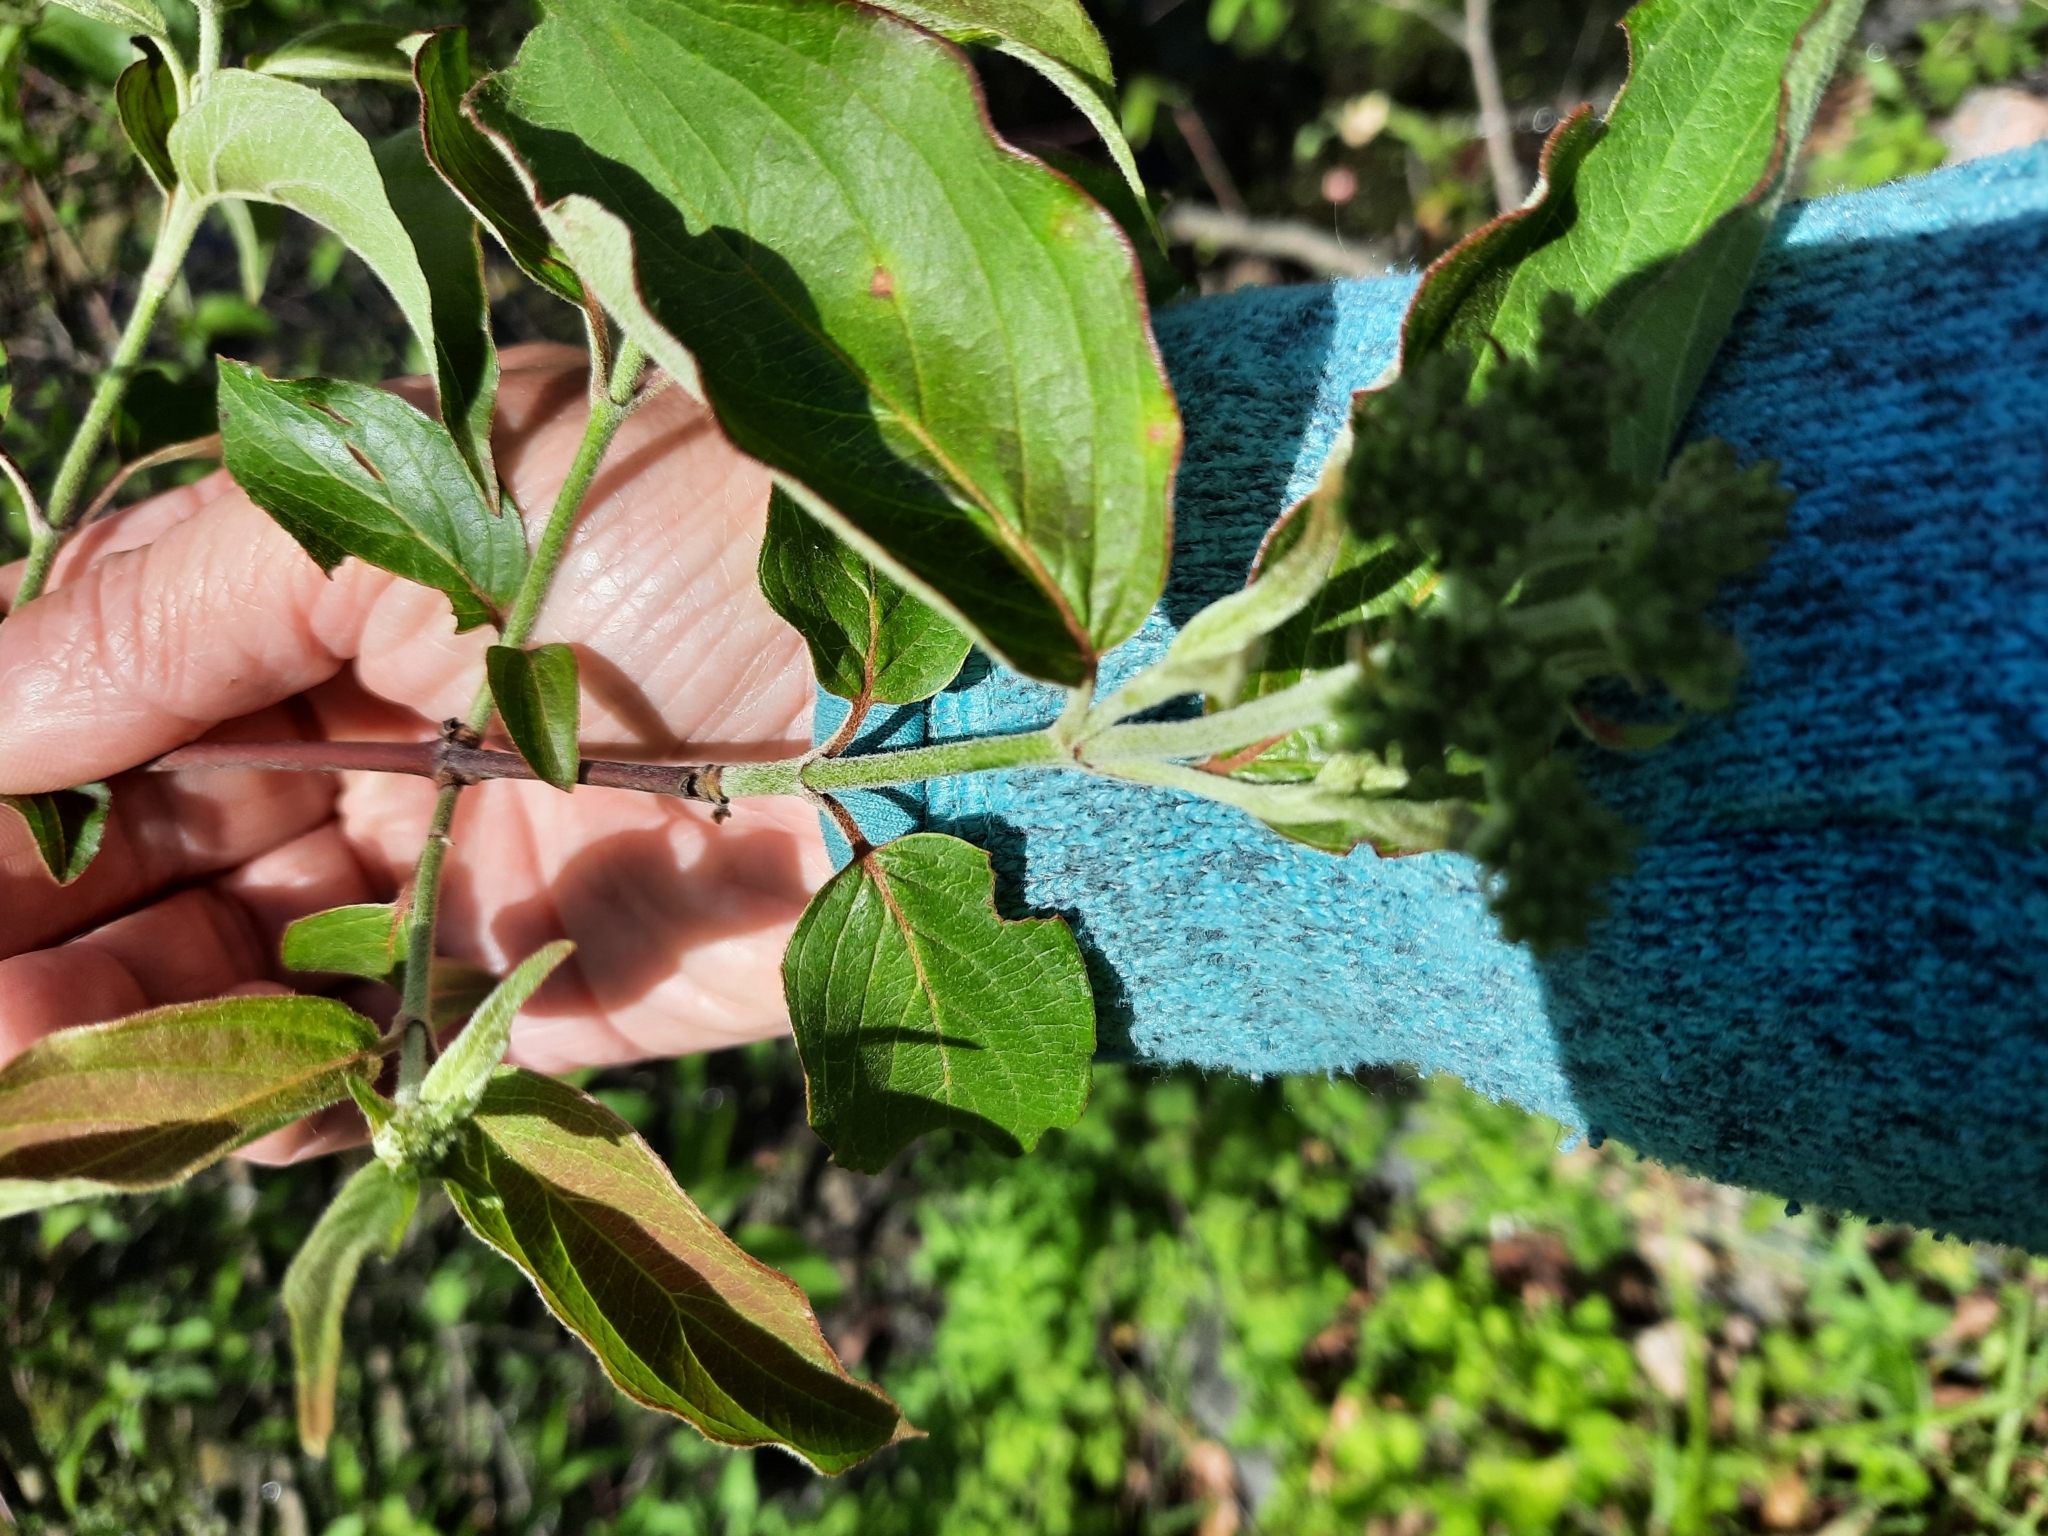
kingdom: Plantae
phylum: Tracheophyta
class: Magnoliopsida
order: Cornales
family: Cornaceae
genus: Cornus
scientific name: Cornus amomum
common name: Silky dogwood
